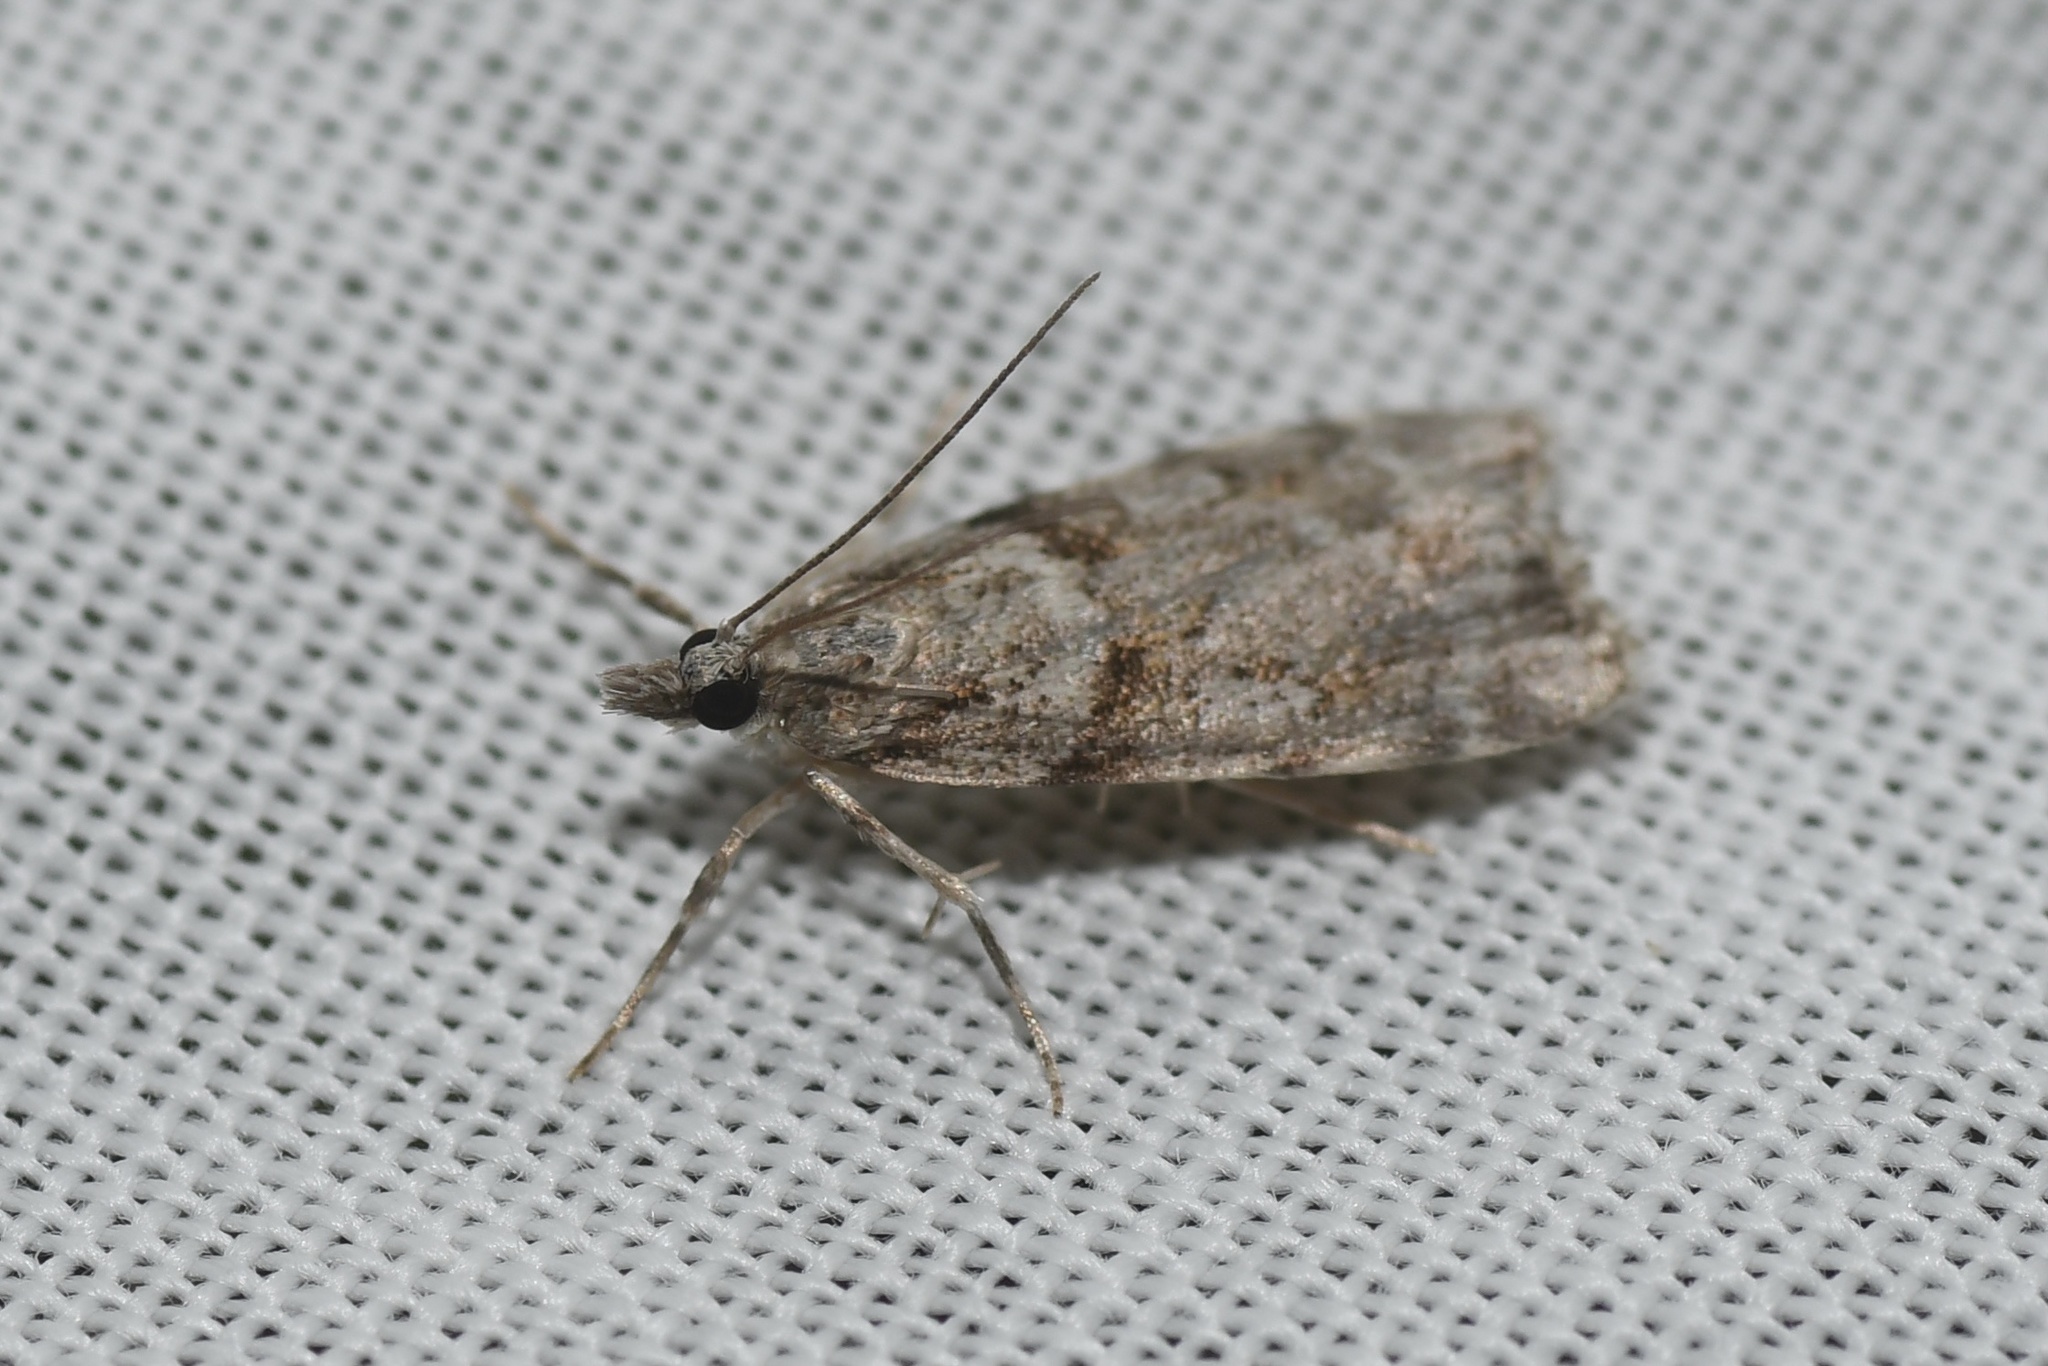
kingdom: Animalia
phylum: Arthropoda
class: Insecta
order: Lepidoptera
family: Crambidae
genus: Scoparia
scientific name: Scoparia biplagialis
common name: Double-striped scoparia moth
